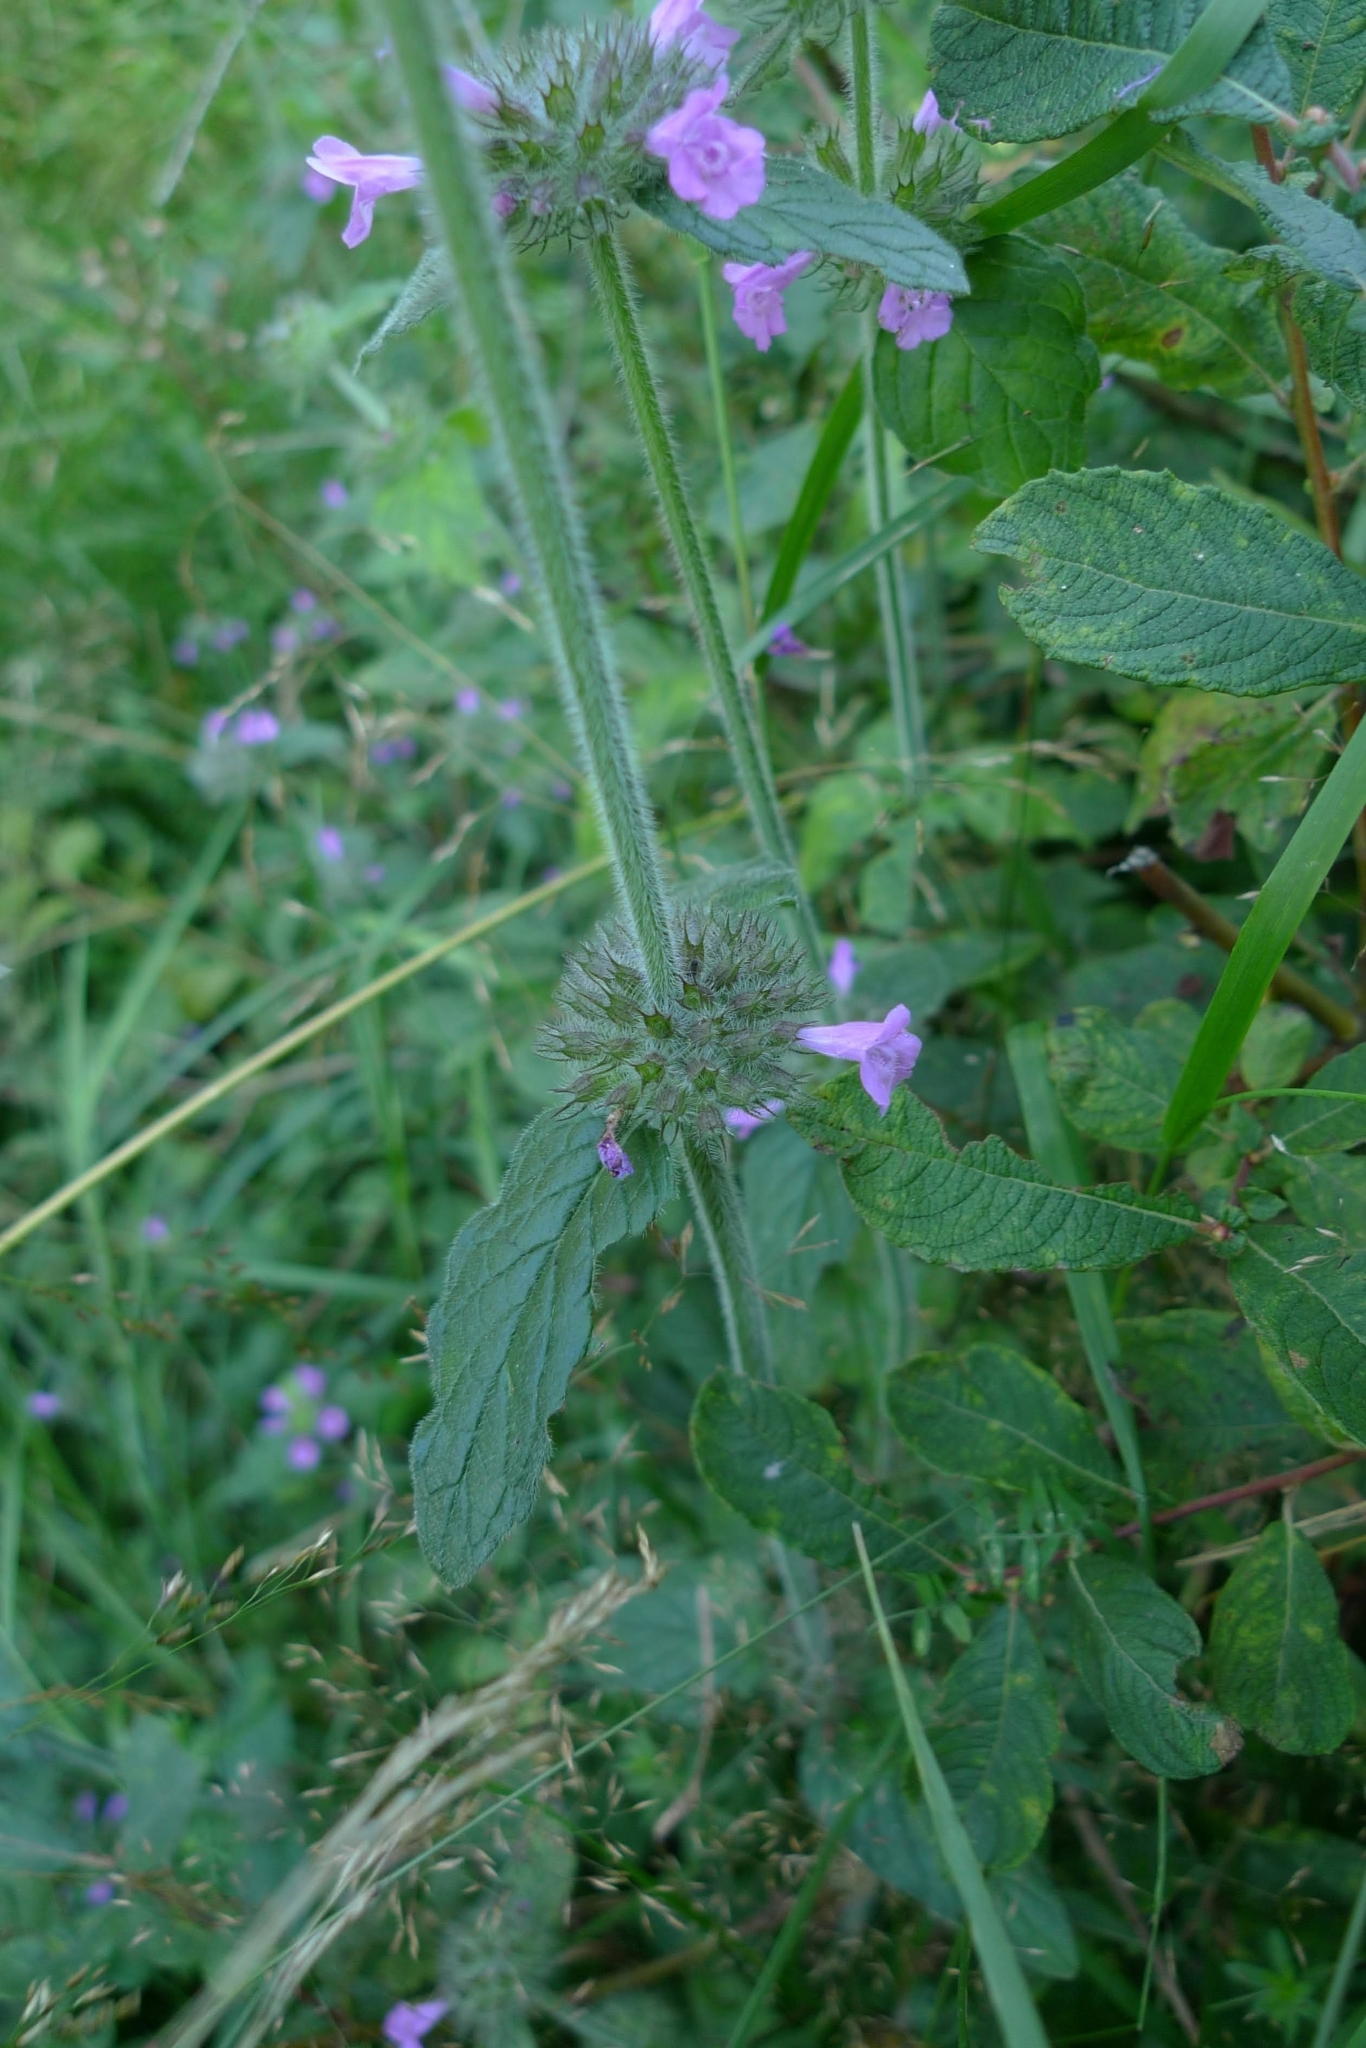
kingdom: Plantae
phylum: Tracheophyta
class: Magnoliopsida
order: Lamiales
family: Lamiaceae
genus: Clinopodium
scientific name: Clinopodium vulgare
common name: Wild basil
